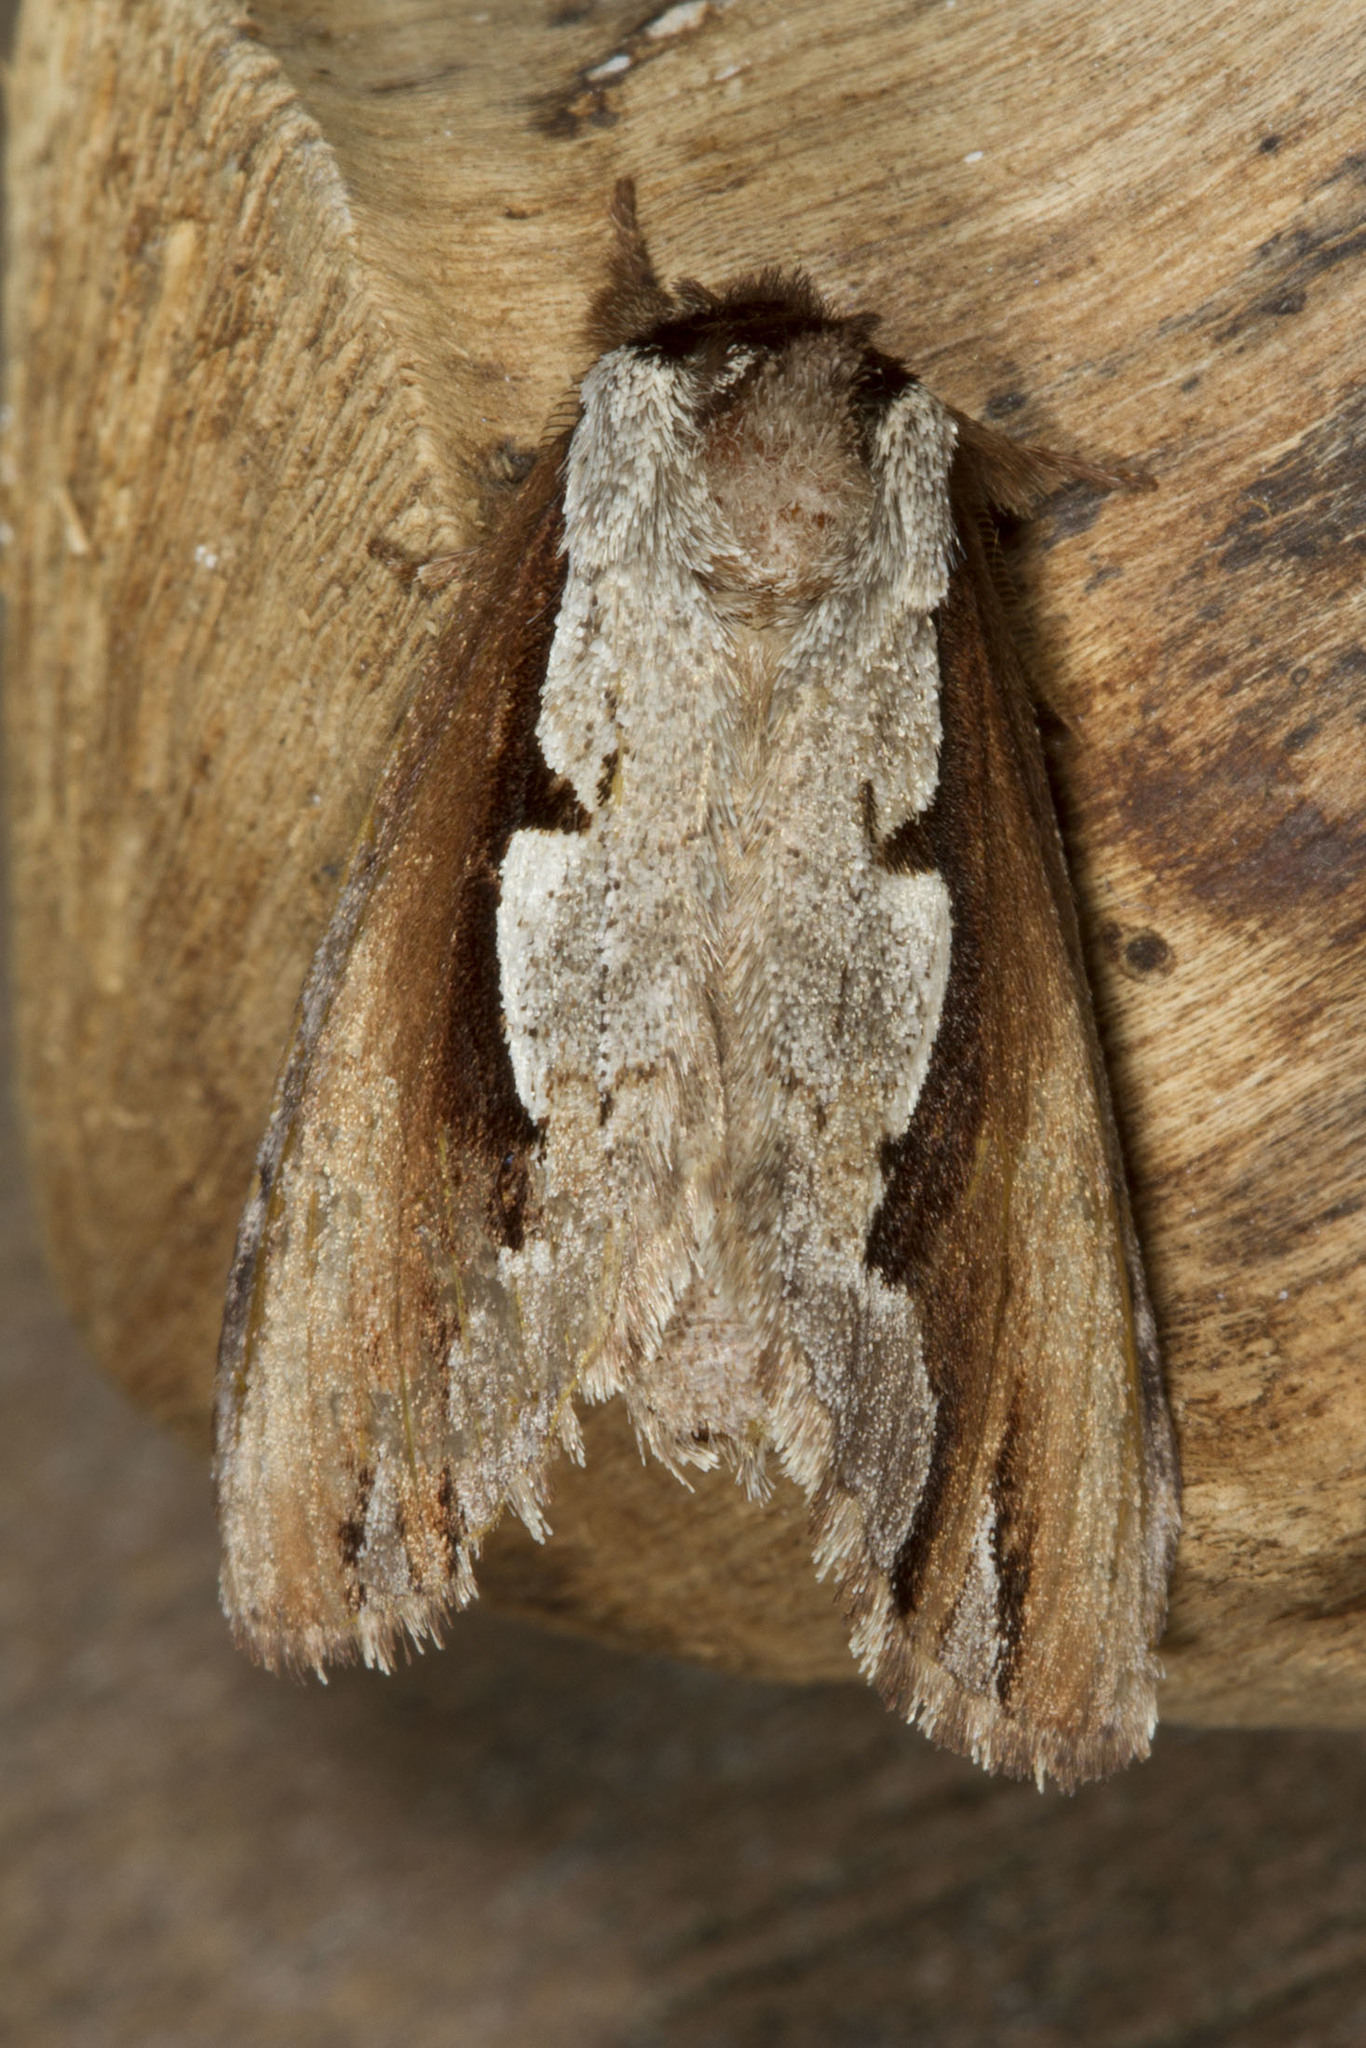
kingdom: Animalia
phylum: Arthropoda
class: Insecta
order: Lepidoptera
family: Notodontidae
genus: Nerice
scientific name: Nerice bidentata
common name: Double-toothed prominent
